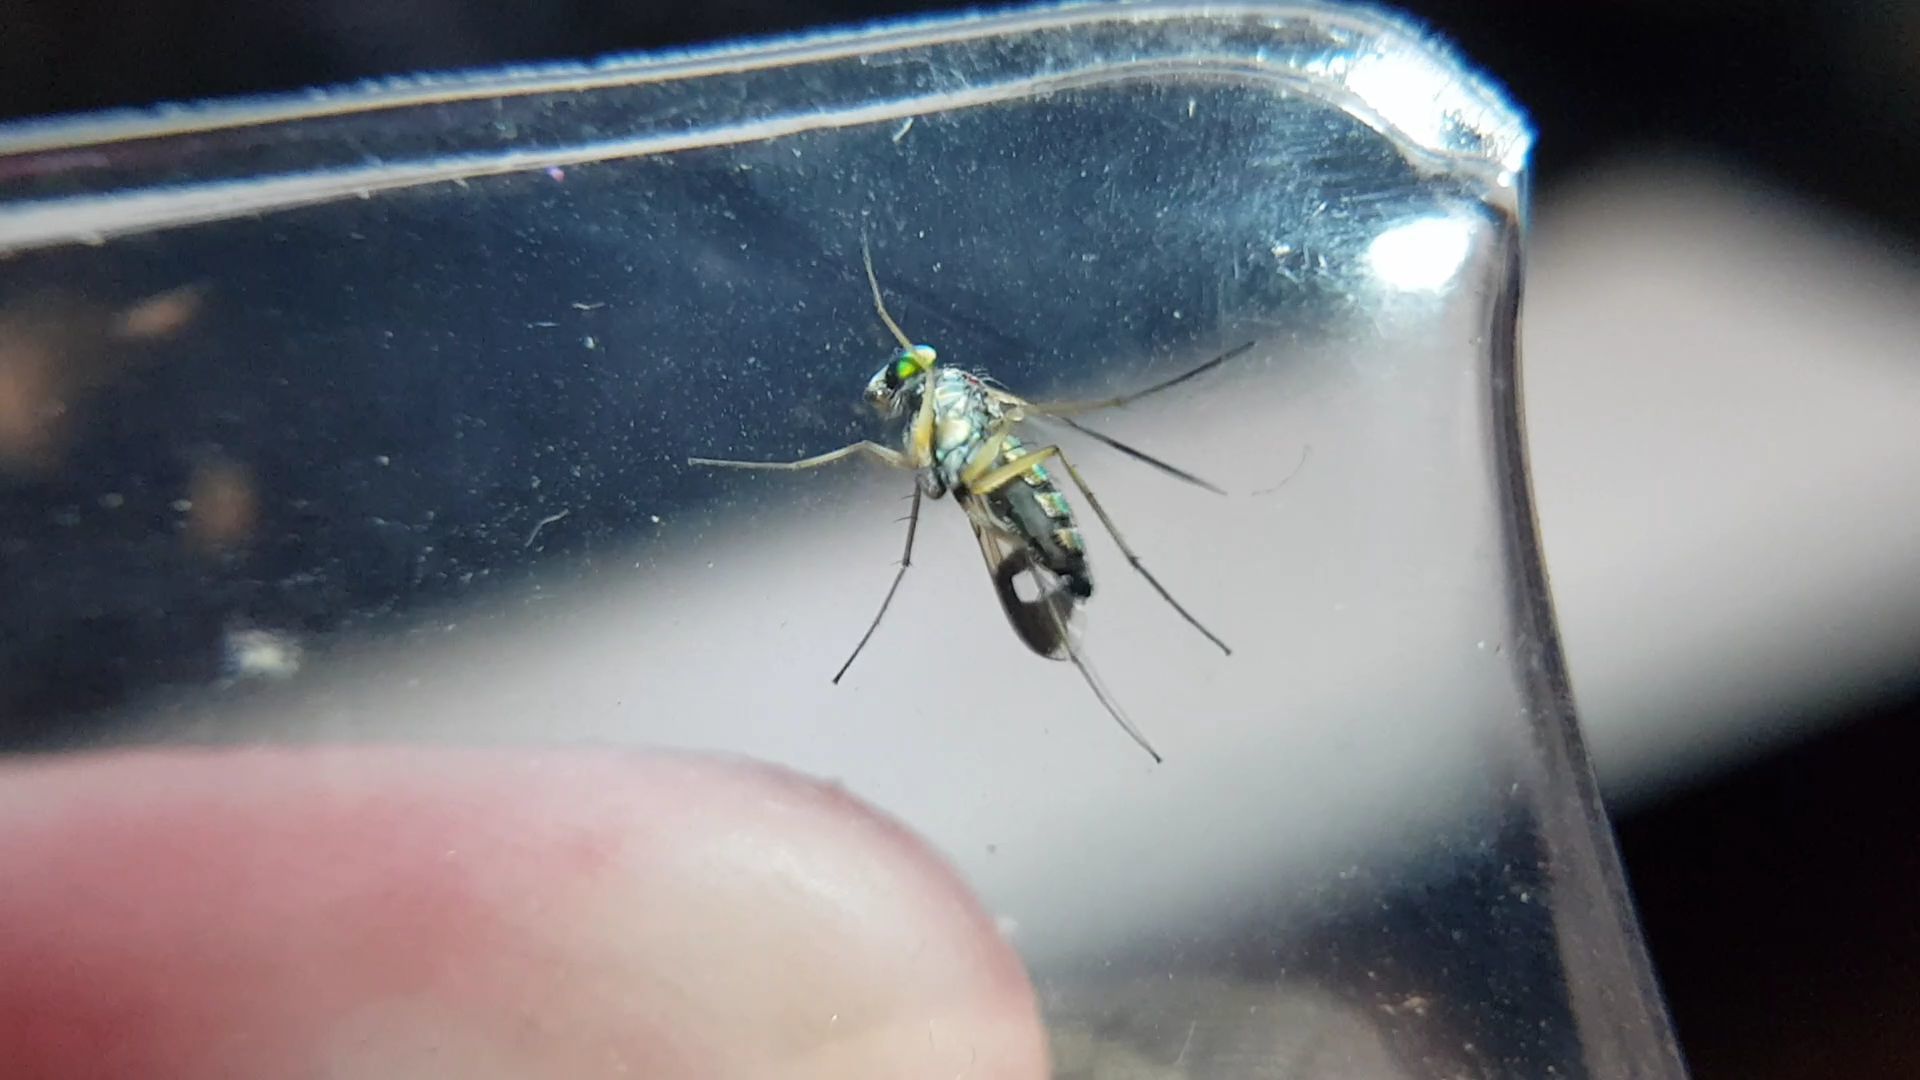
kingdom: Animalia
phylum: Arthropoda
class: Insecta
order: Diptera
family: Dolichopodidae
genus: Austrosciapus
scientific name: Austrosciapus
